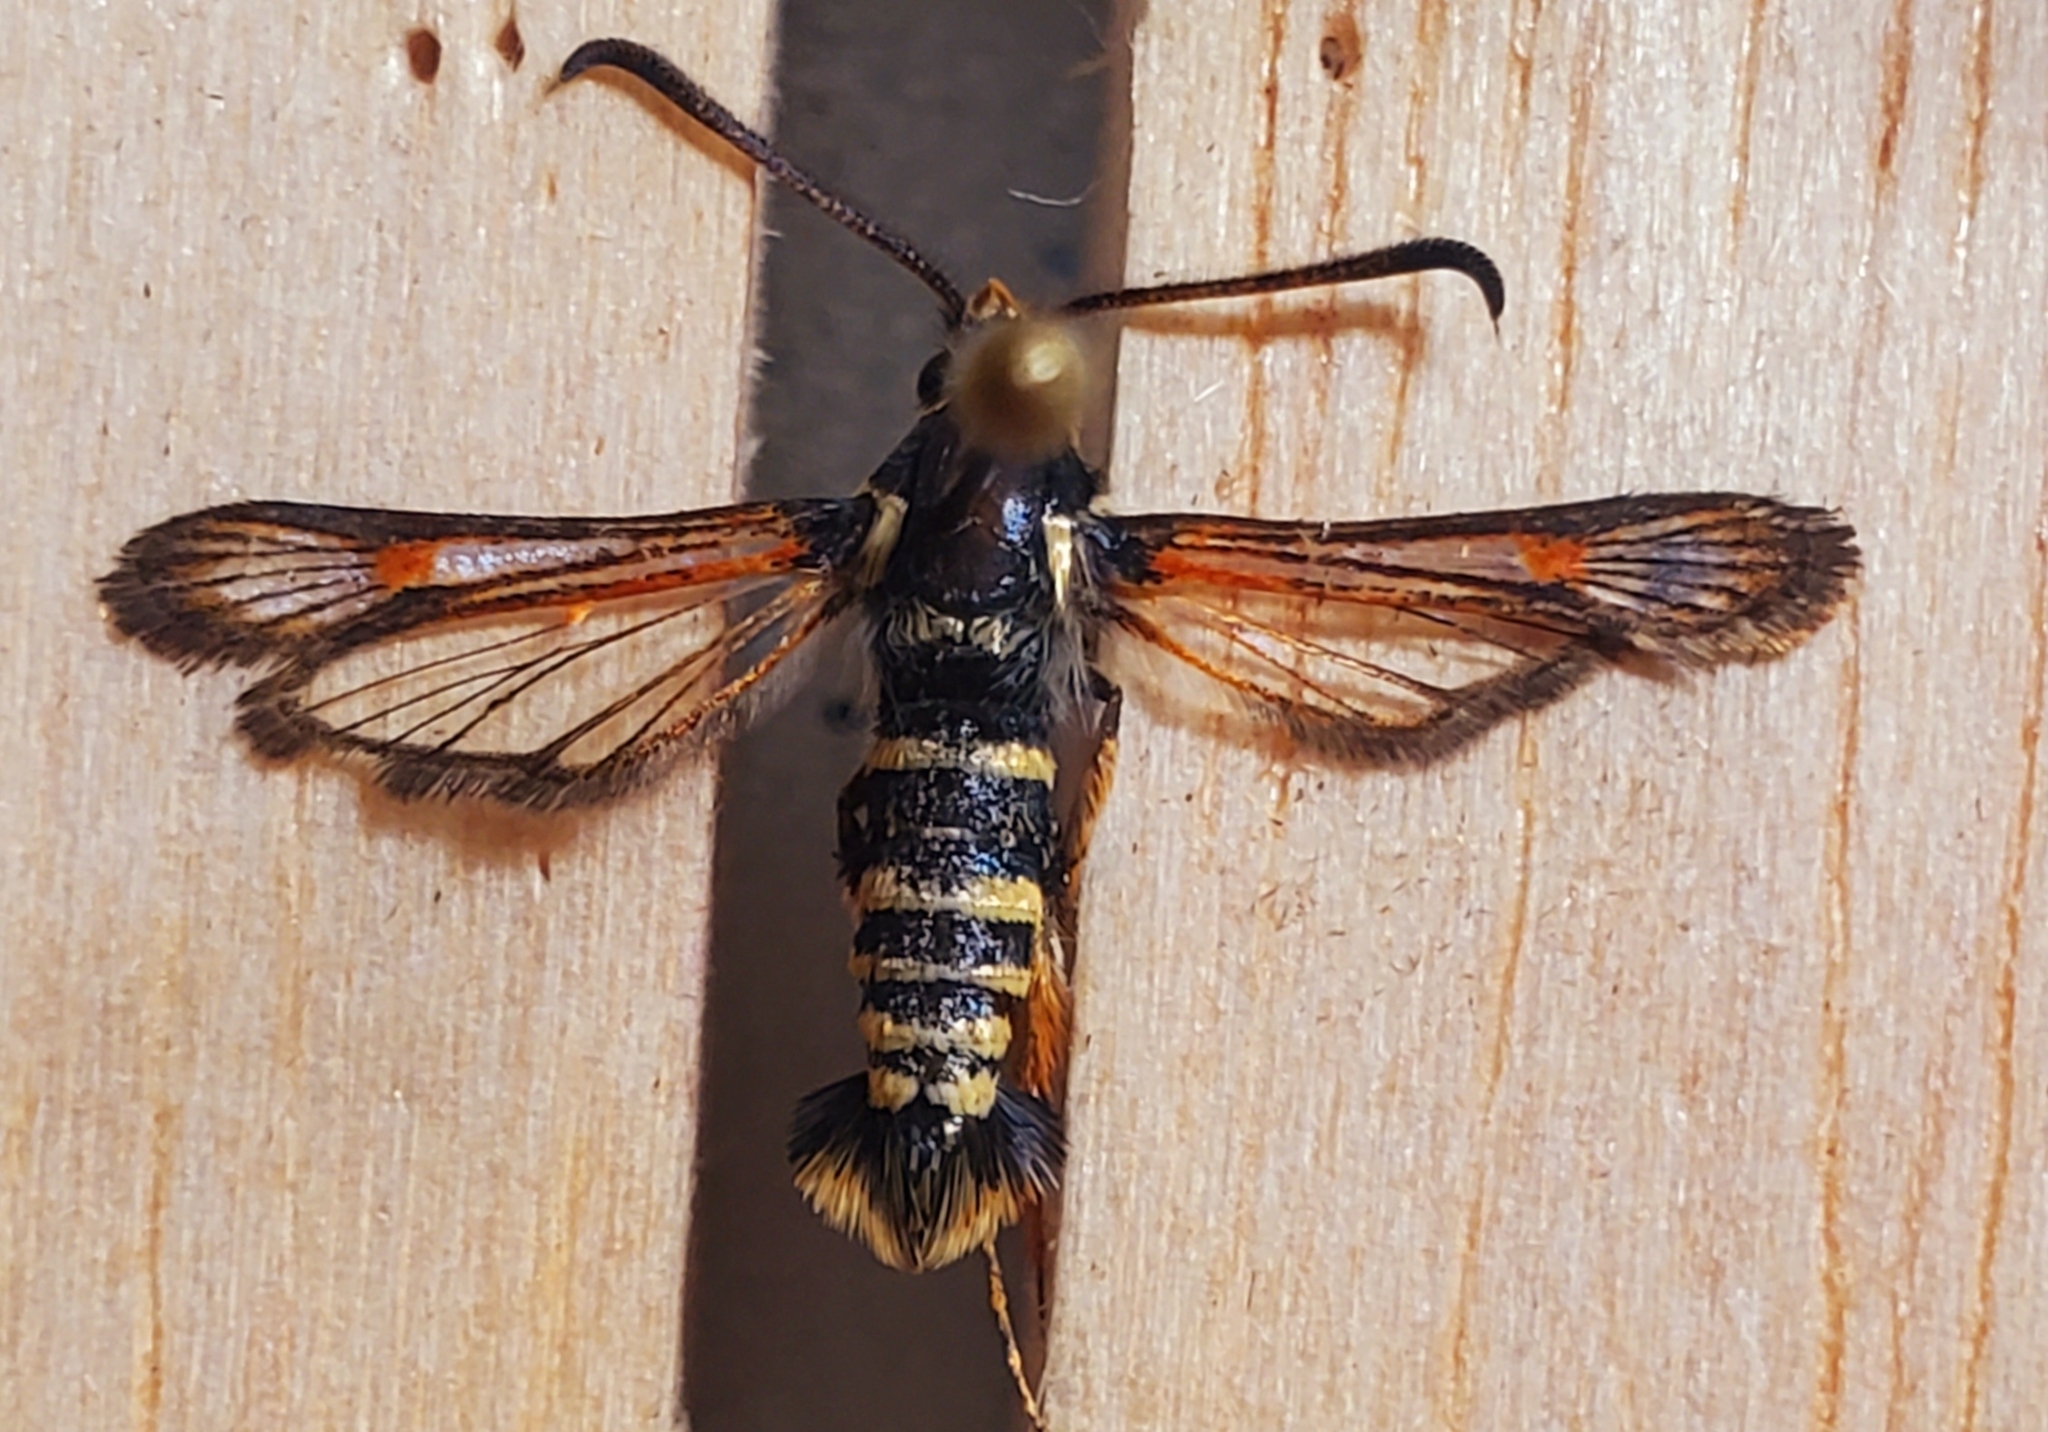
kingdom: Animalia
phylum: Arthropoda
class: Insecta
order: Lepidoptera
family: Sesiidae
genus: Carmenta
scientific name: Carmenta mimuli
